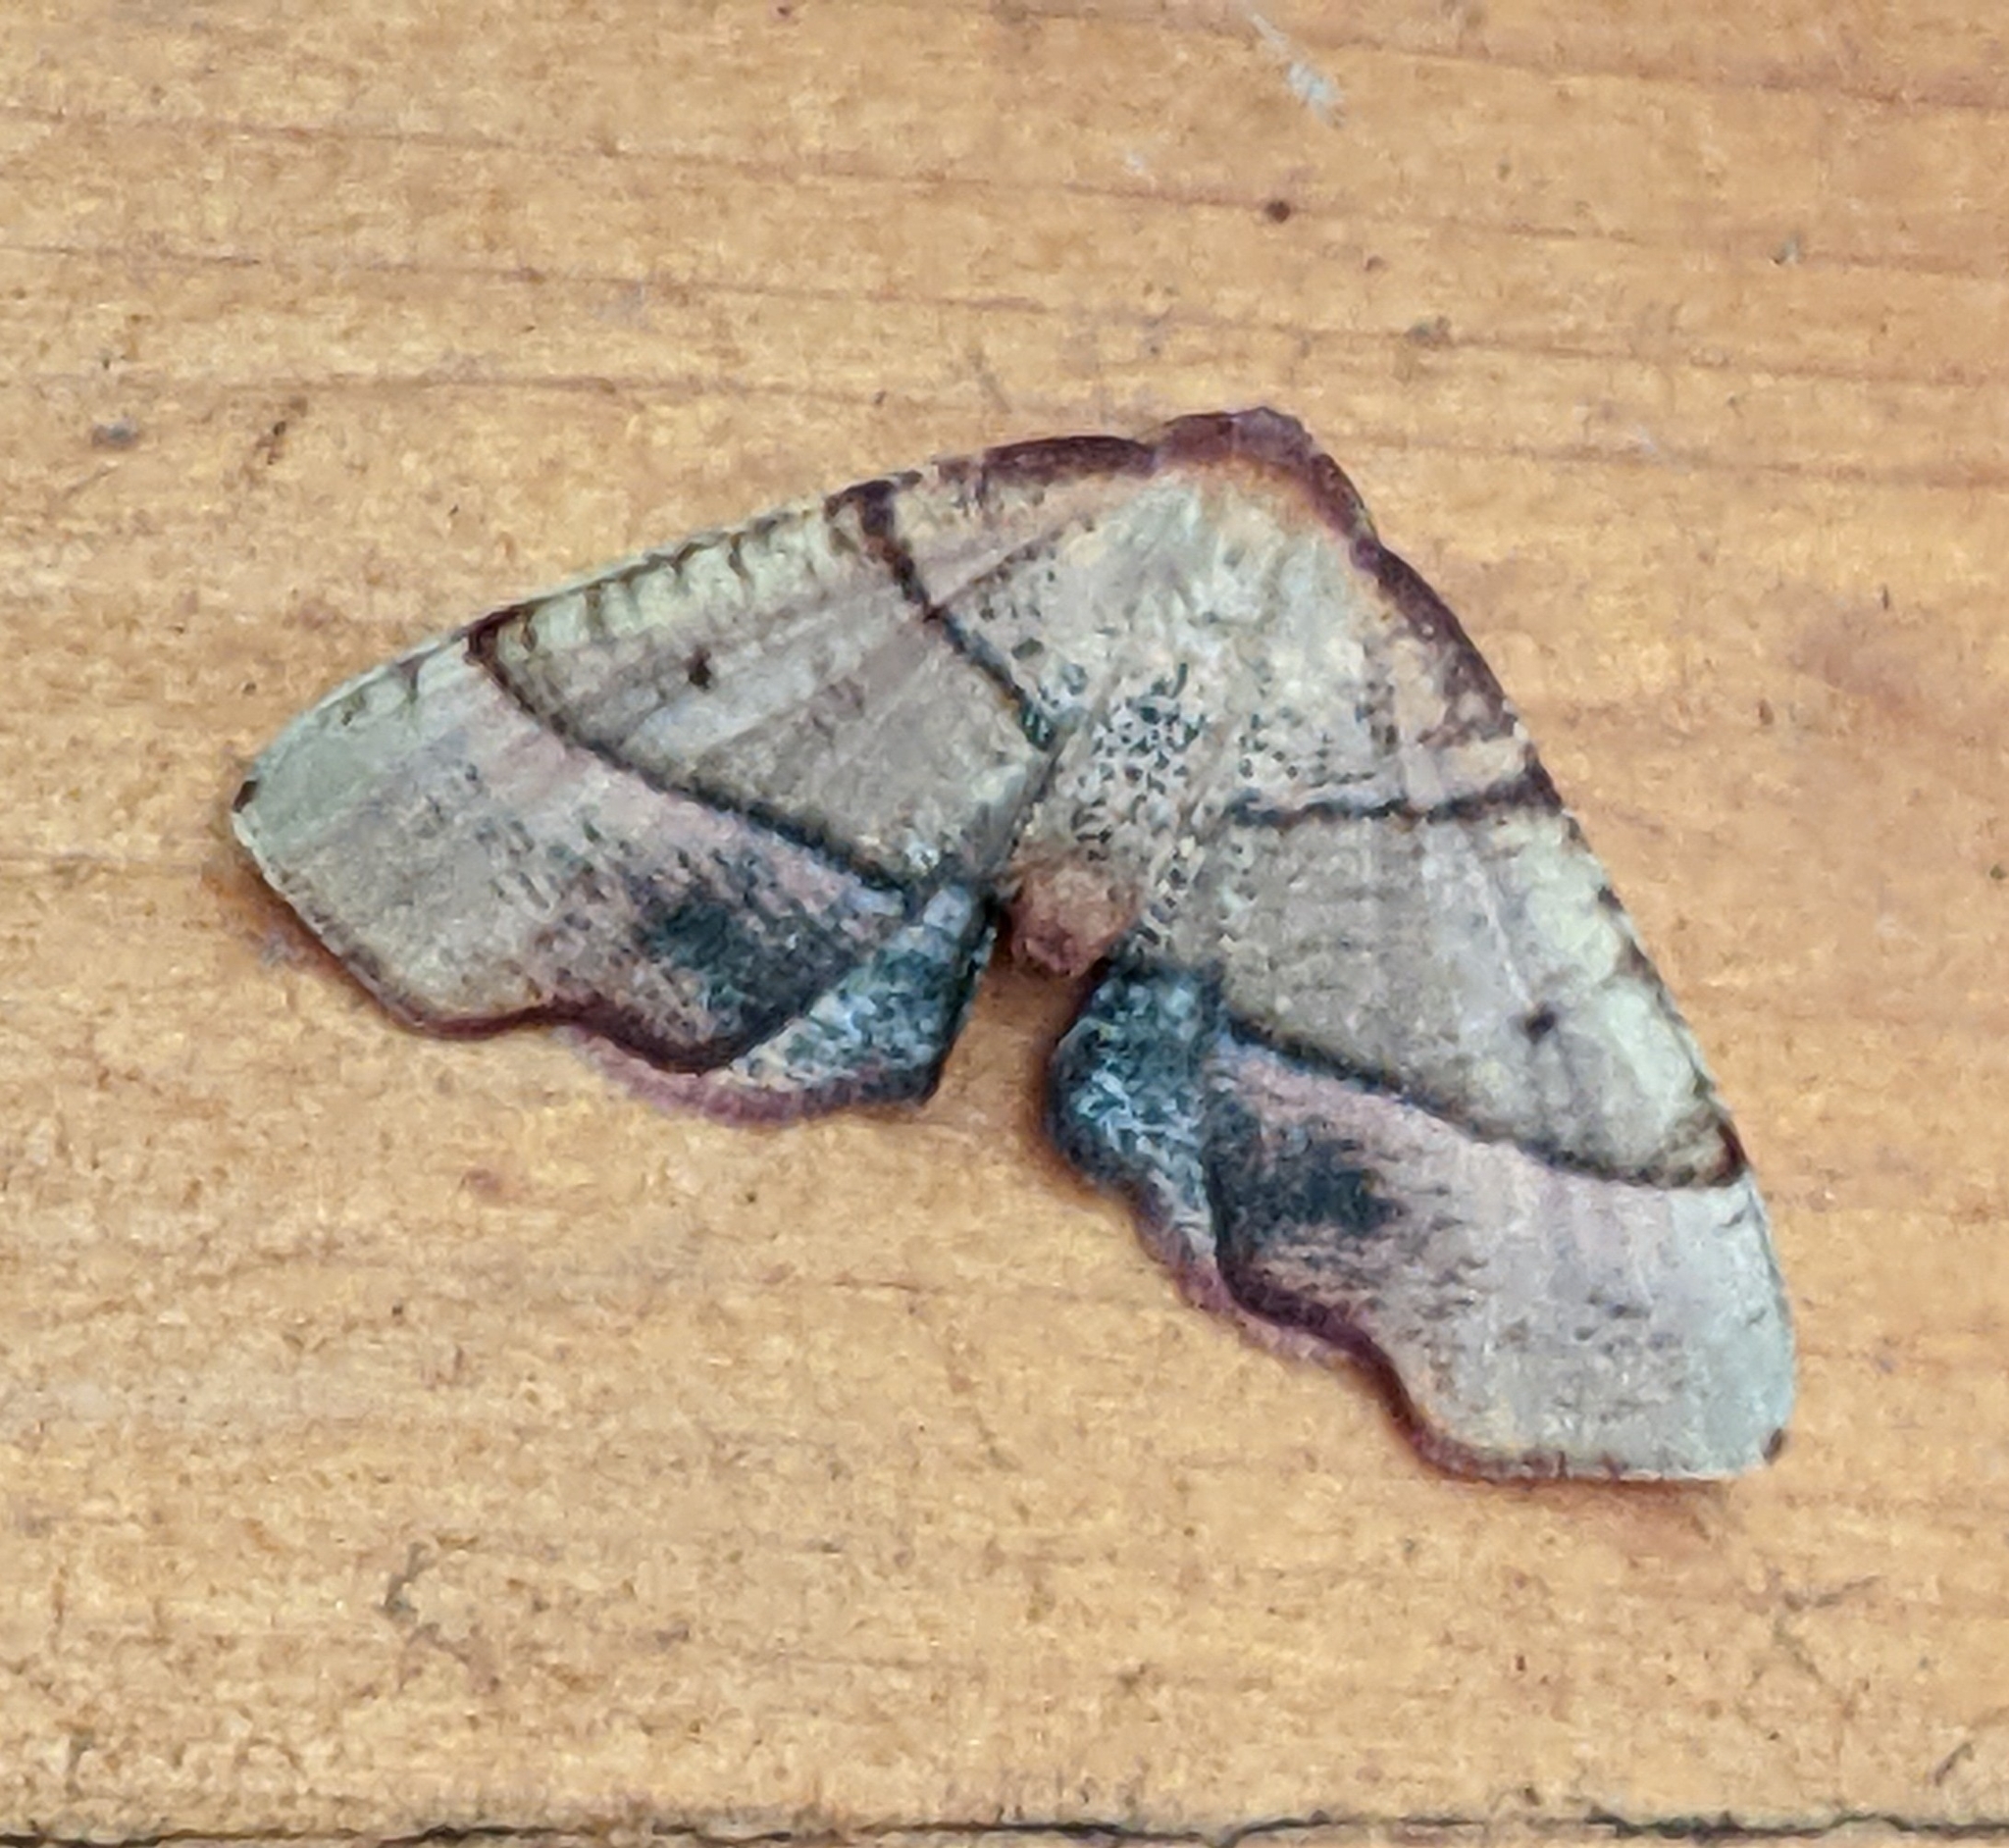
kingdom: Animalia
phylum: Arthropoda
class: Insecta
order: Lepidoptera
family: Geometridae
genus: Plagodis
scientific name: Plagodis phlogosaria
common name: Straight-lined plagodis
